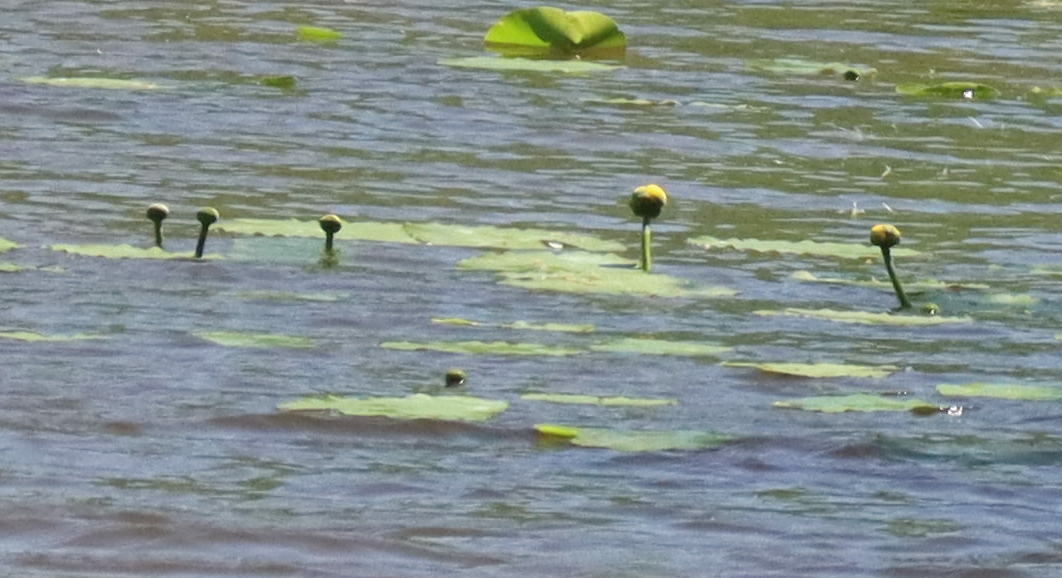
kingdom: Plantae
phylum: Tracheophyta
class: Magnoliopsida
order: Nymphaeales
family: Nymphaeaceae
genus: Nuphar
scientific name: Nuphar variegata
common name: Beaver-root
